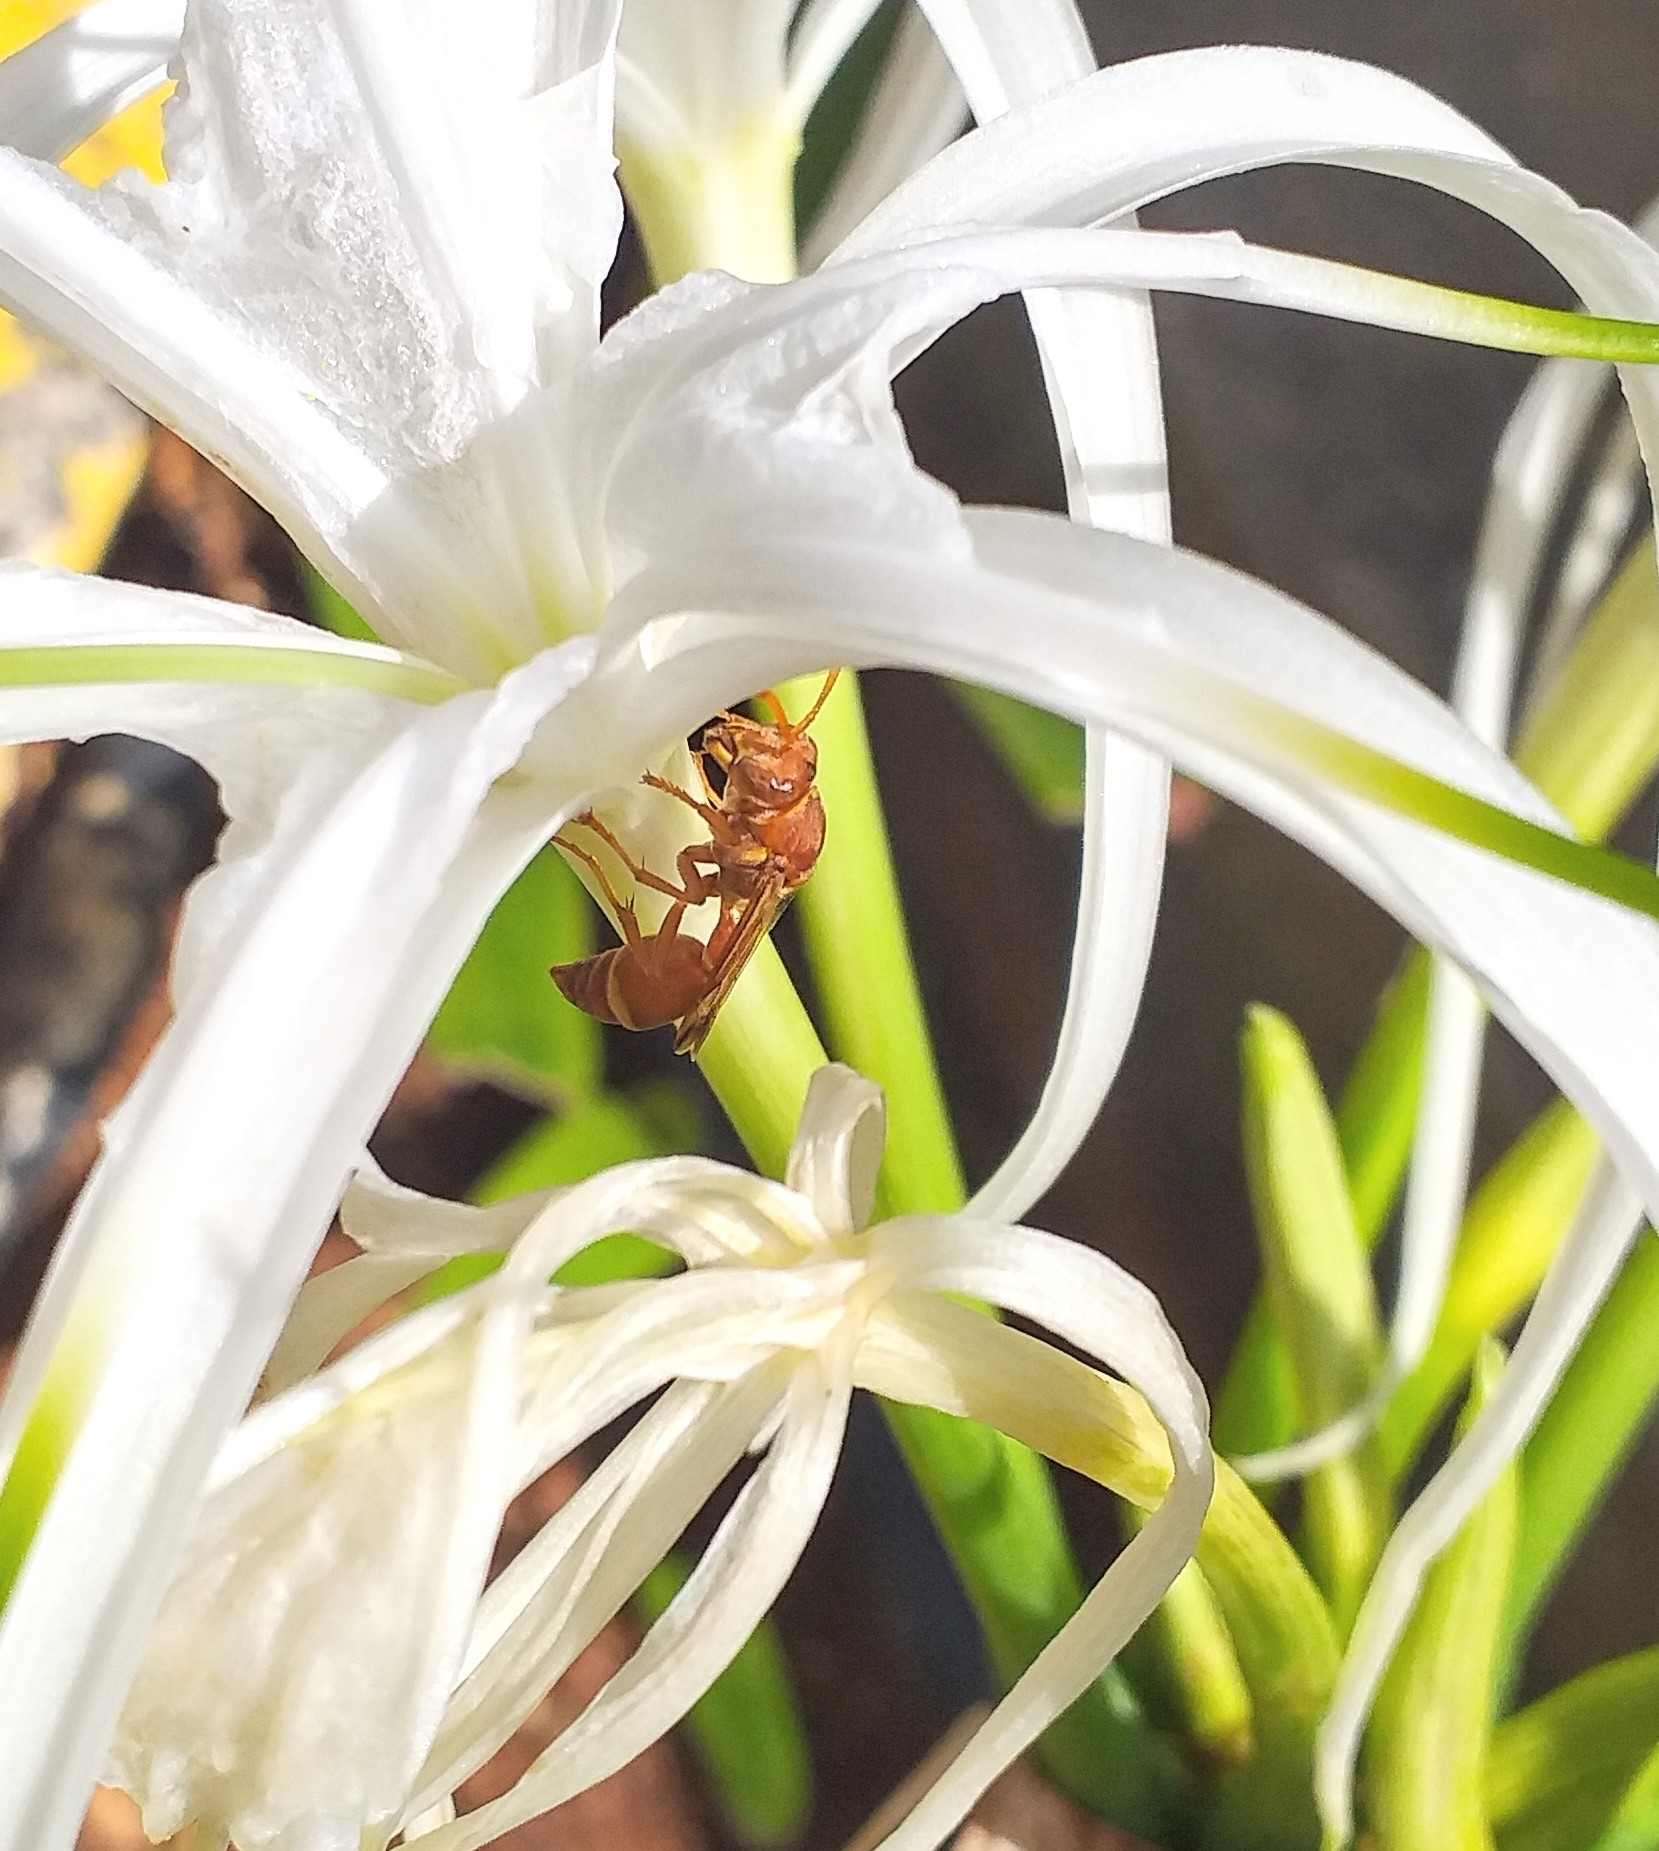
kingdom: Animalia
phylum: Arthropoda
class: Insecta
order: Hymenoptera
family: Vespidae
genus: Ropalidia
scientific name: Ropalidia marginata
